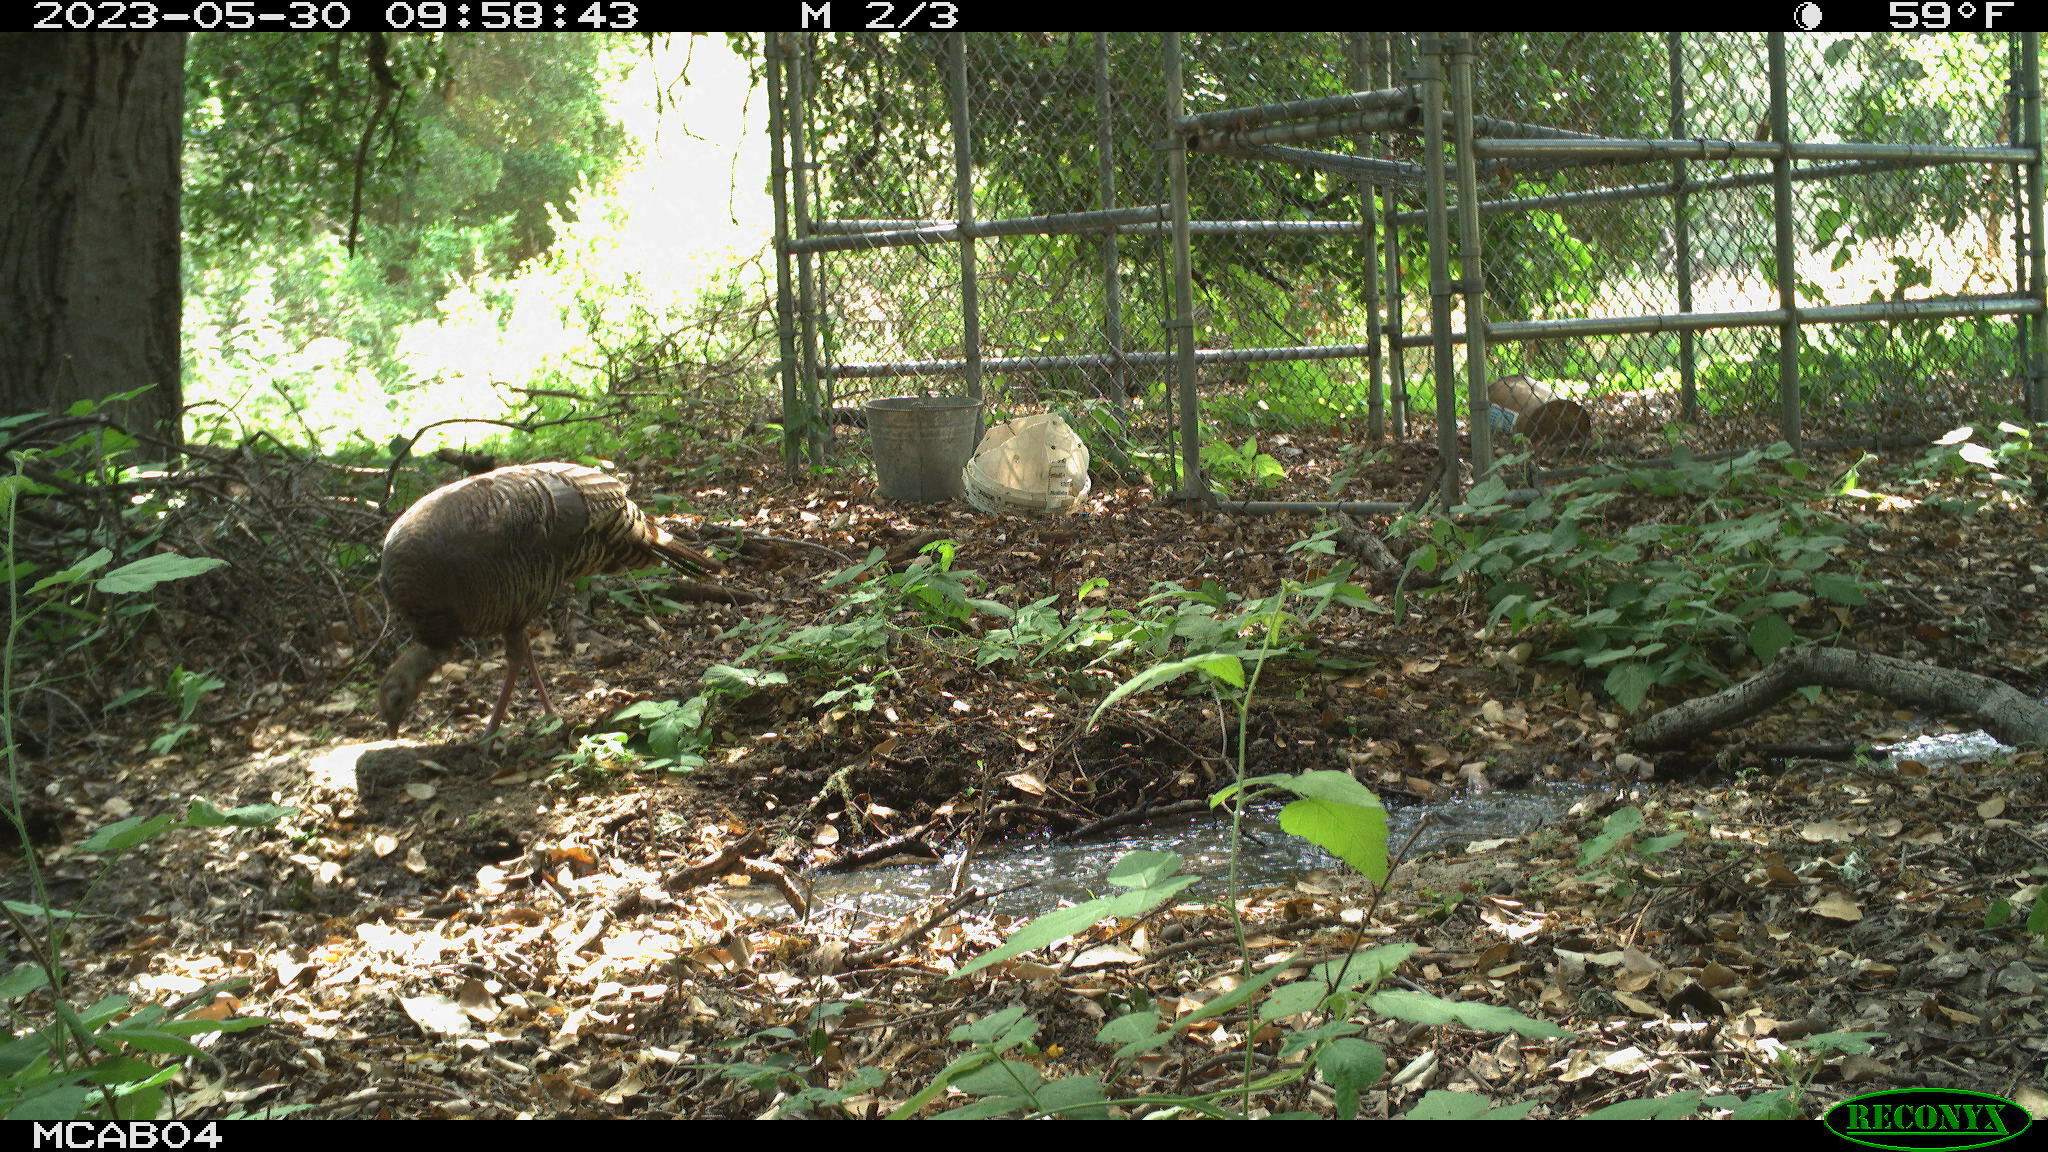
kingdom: Animalia
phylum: Chordata
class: Aves
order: Galliformes
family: Phasianidae
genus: Meleagris
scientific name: Meleagris gallopavo
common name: Wild turkey
